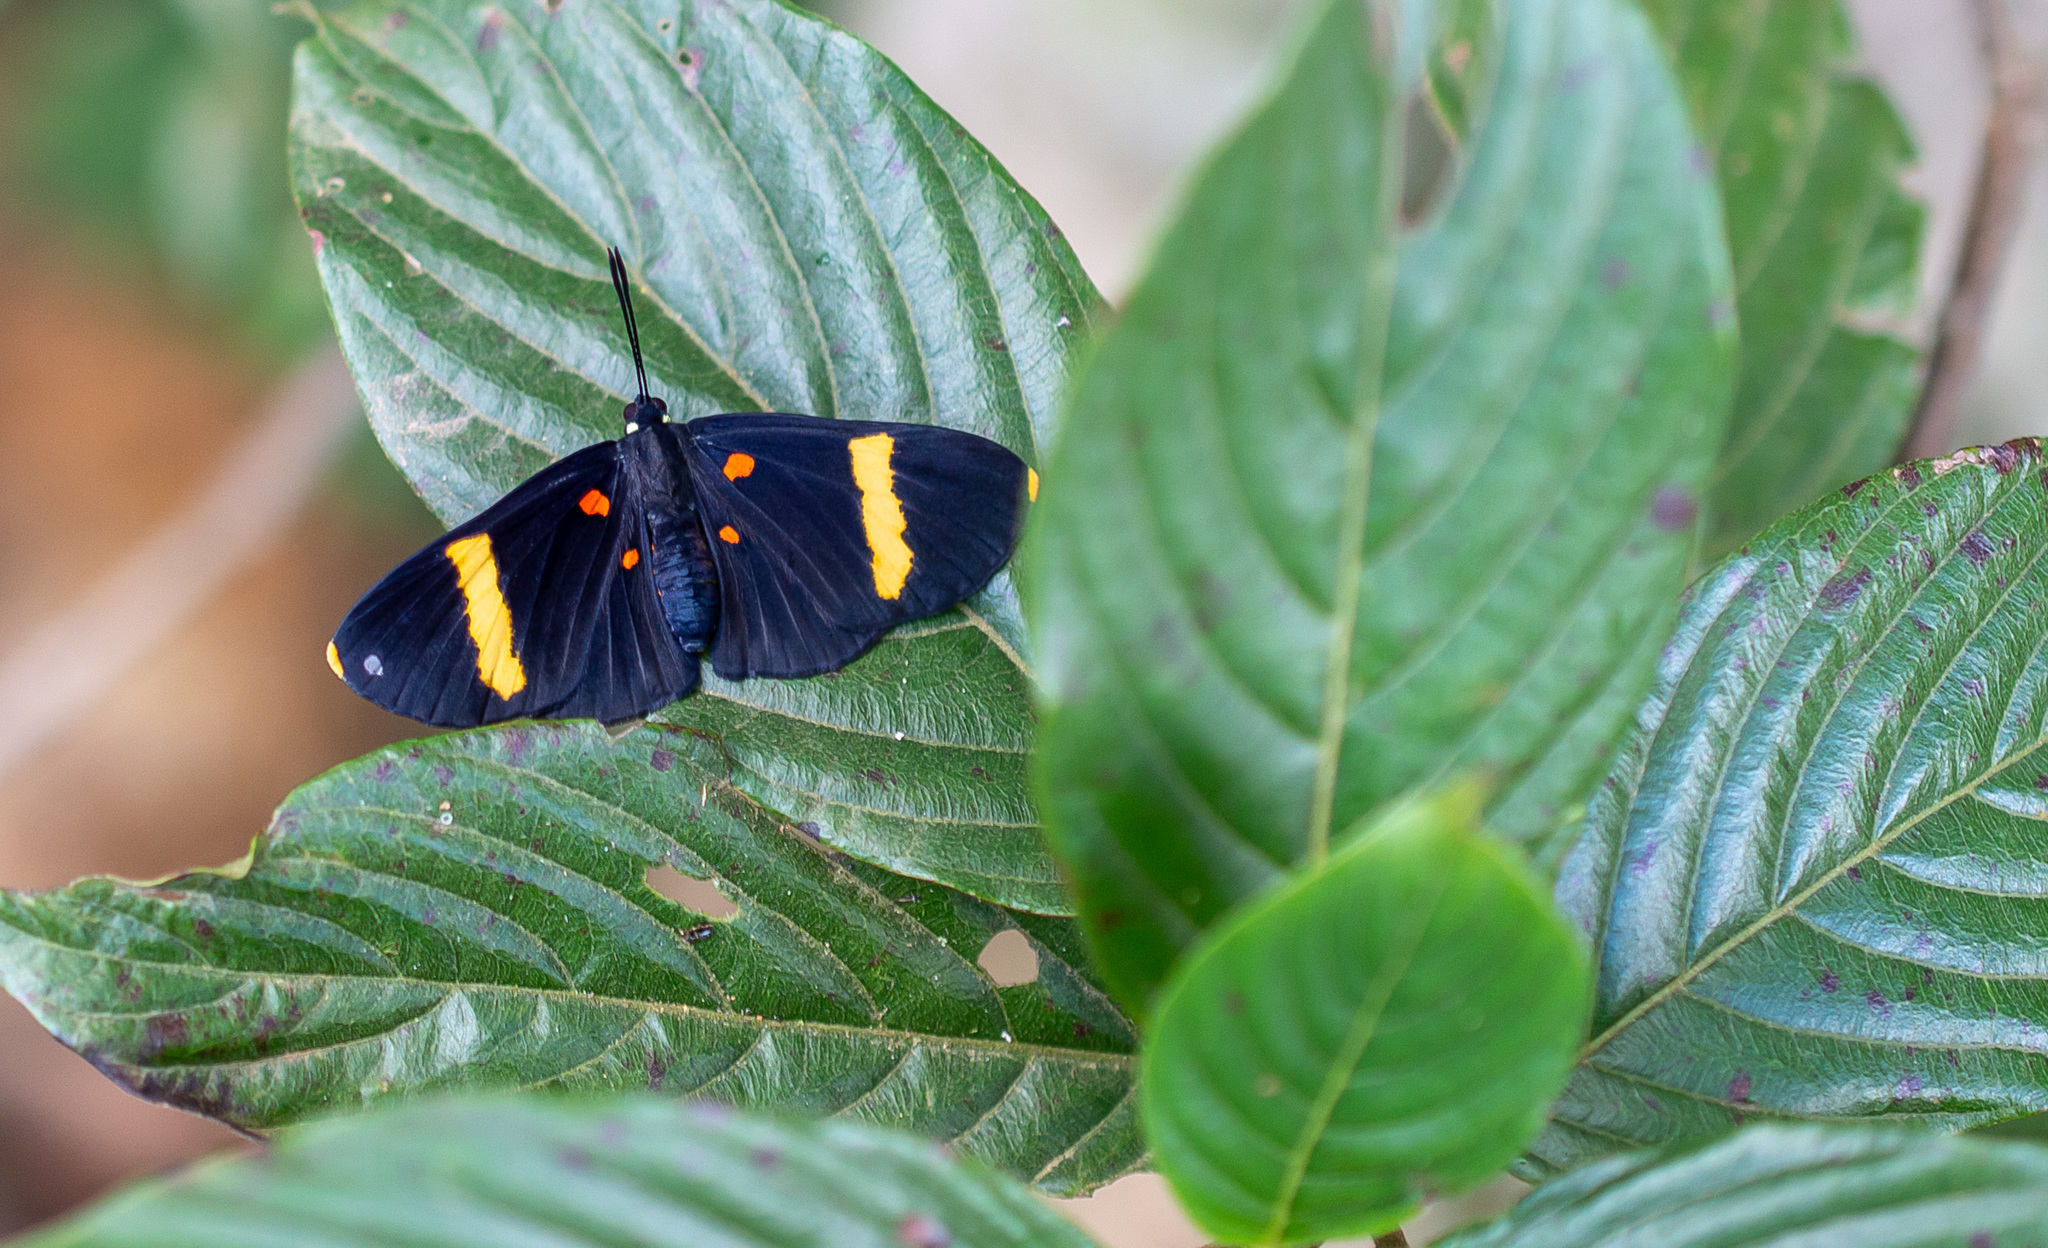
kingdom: Animalia
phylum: Arthropoda
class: Insecta
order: Lepidoptera
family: Lycaenidae
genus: Melanis
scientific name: Melanis electron
